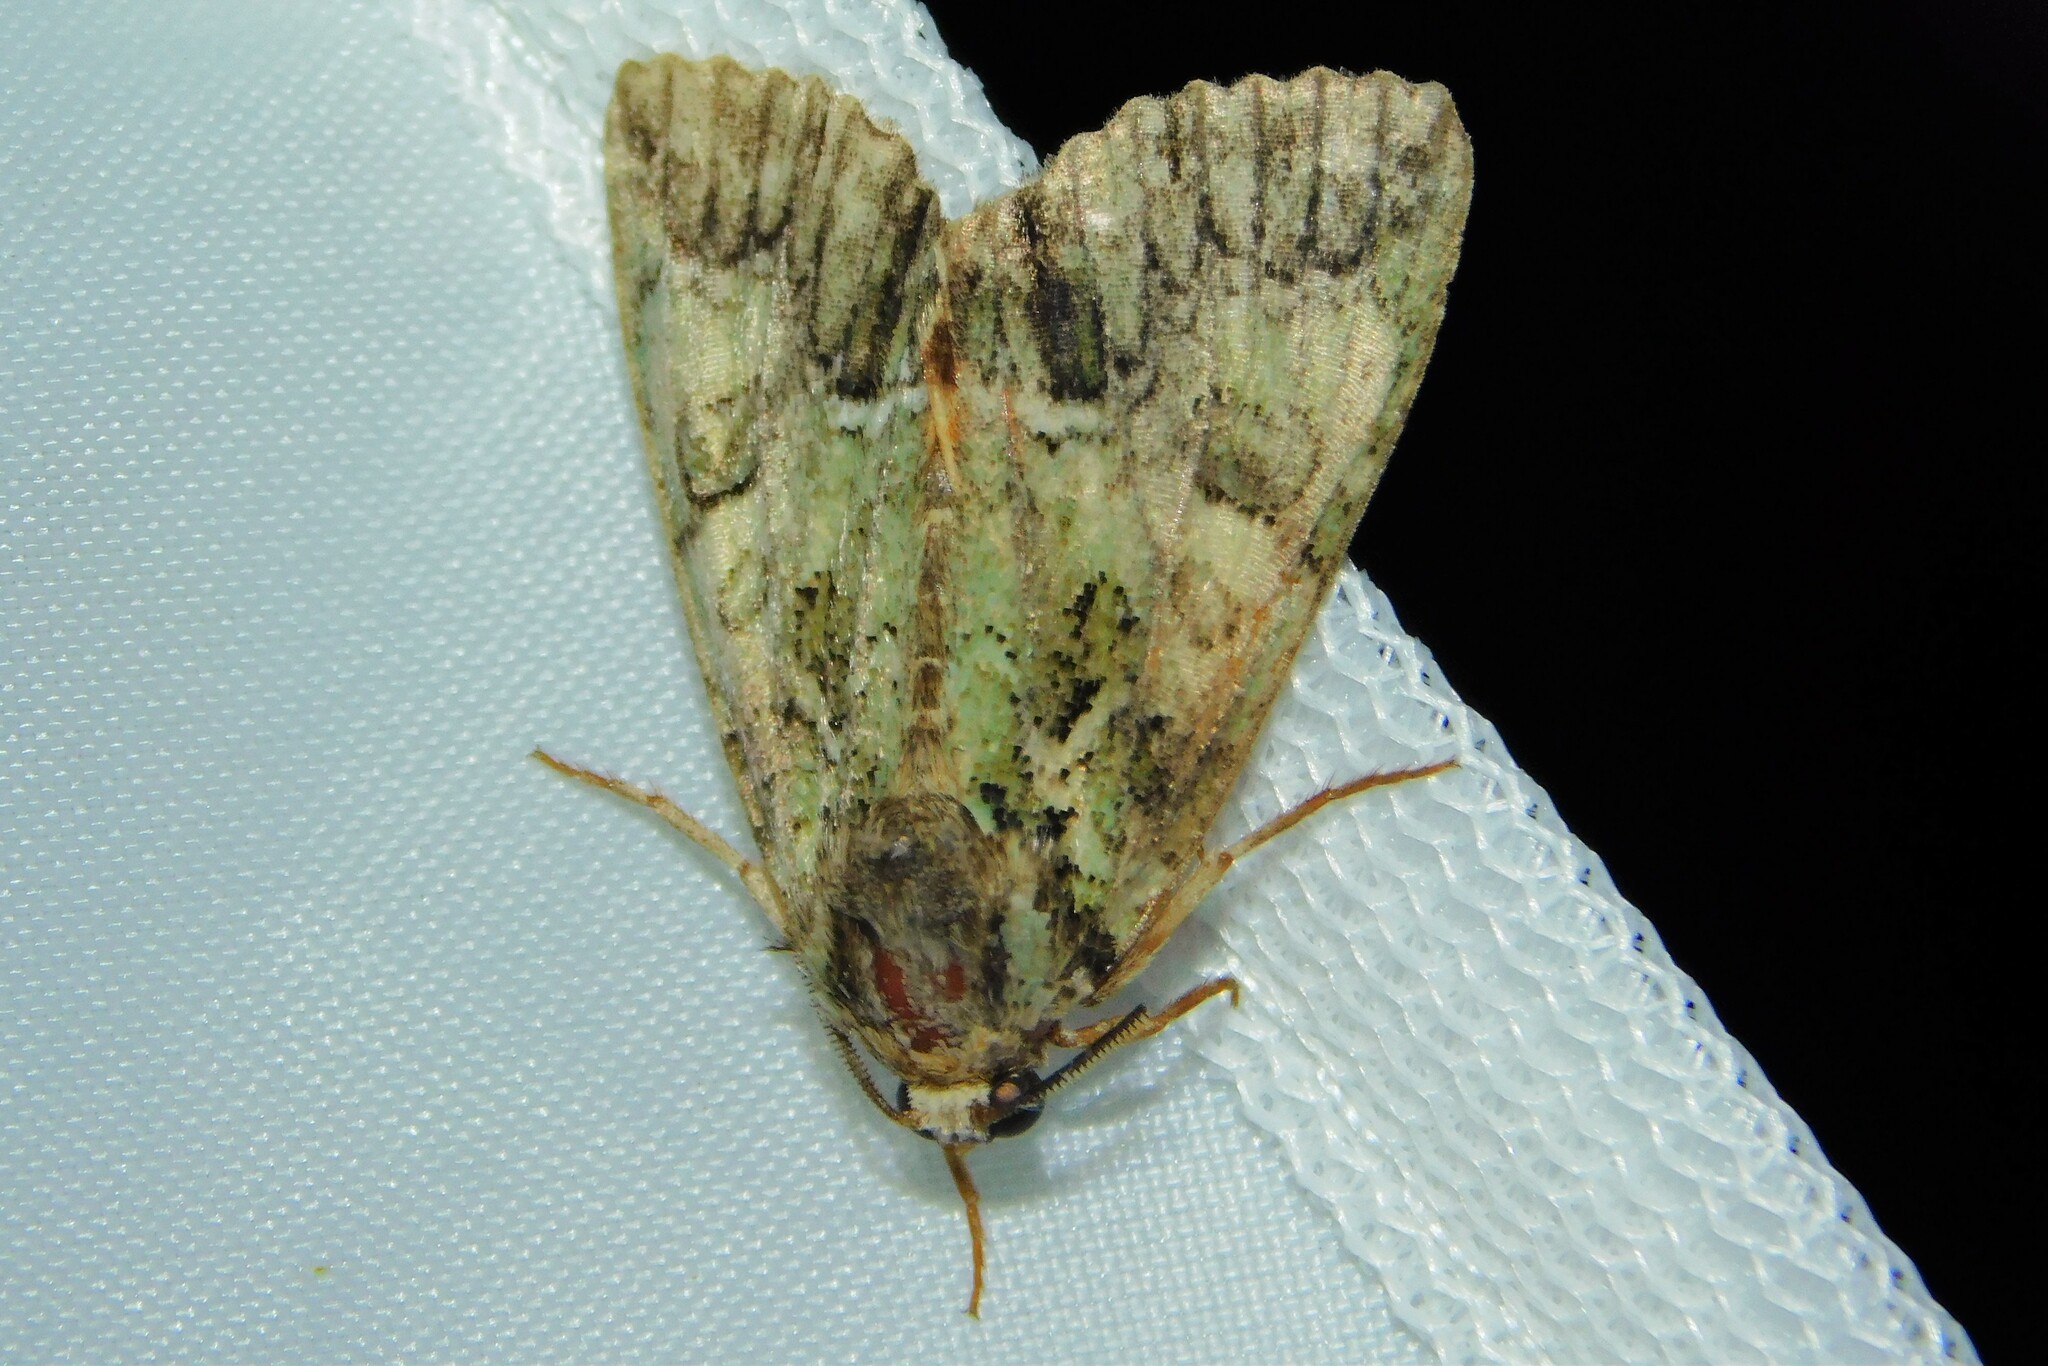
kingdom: Animalia
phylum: Arthropoda
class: Insecta
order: Lepidoptera
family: Noctuidae
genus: Polyphaenis
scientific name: Polyphaenis sericata
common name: Guernsey underwing
